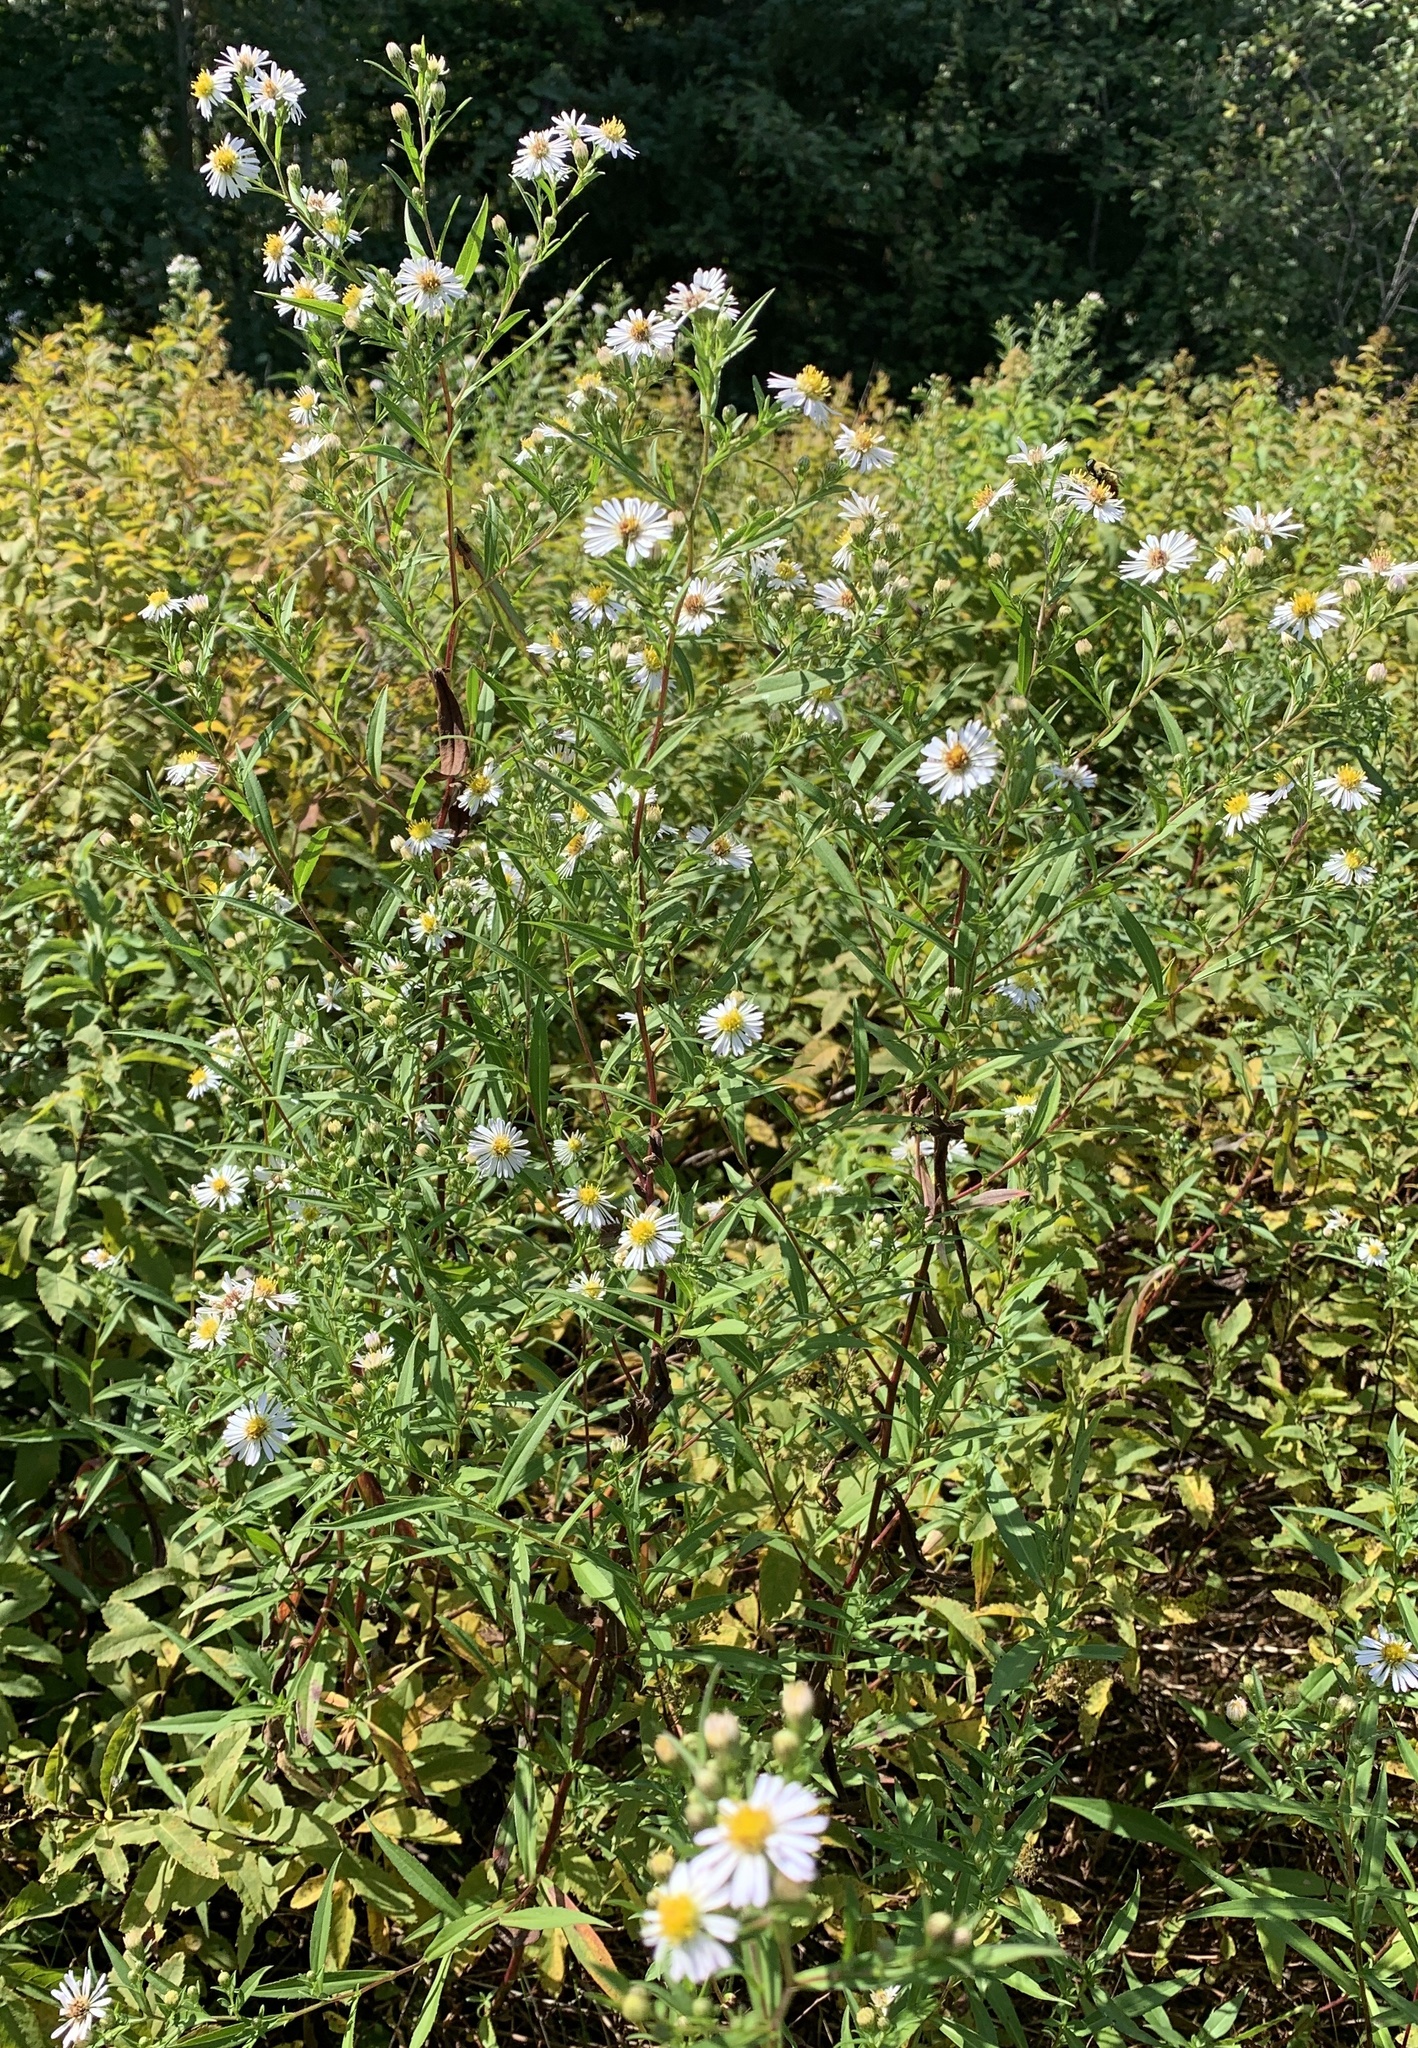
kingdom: Plantae
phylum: Tracheophyta
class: Magnoliopsida
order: Asterales
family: Asteraceae
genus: Symphyotrichum
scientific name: Symphyotrichum lanceolatum
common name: Panicled aster
